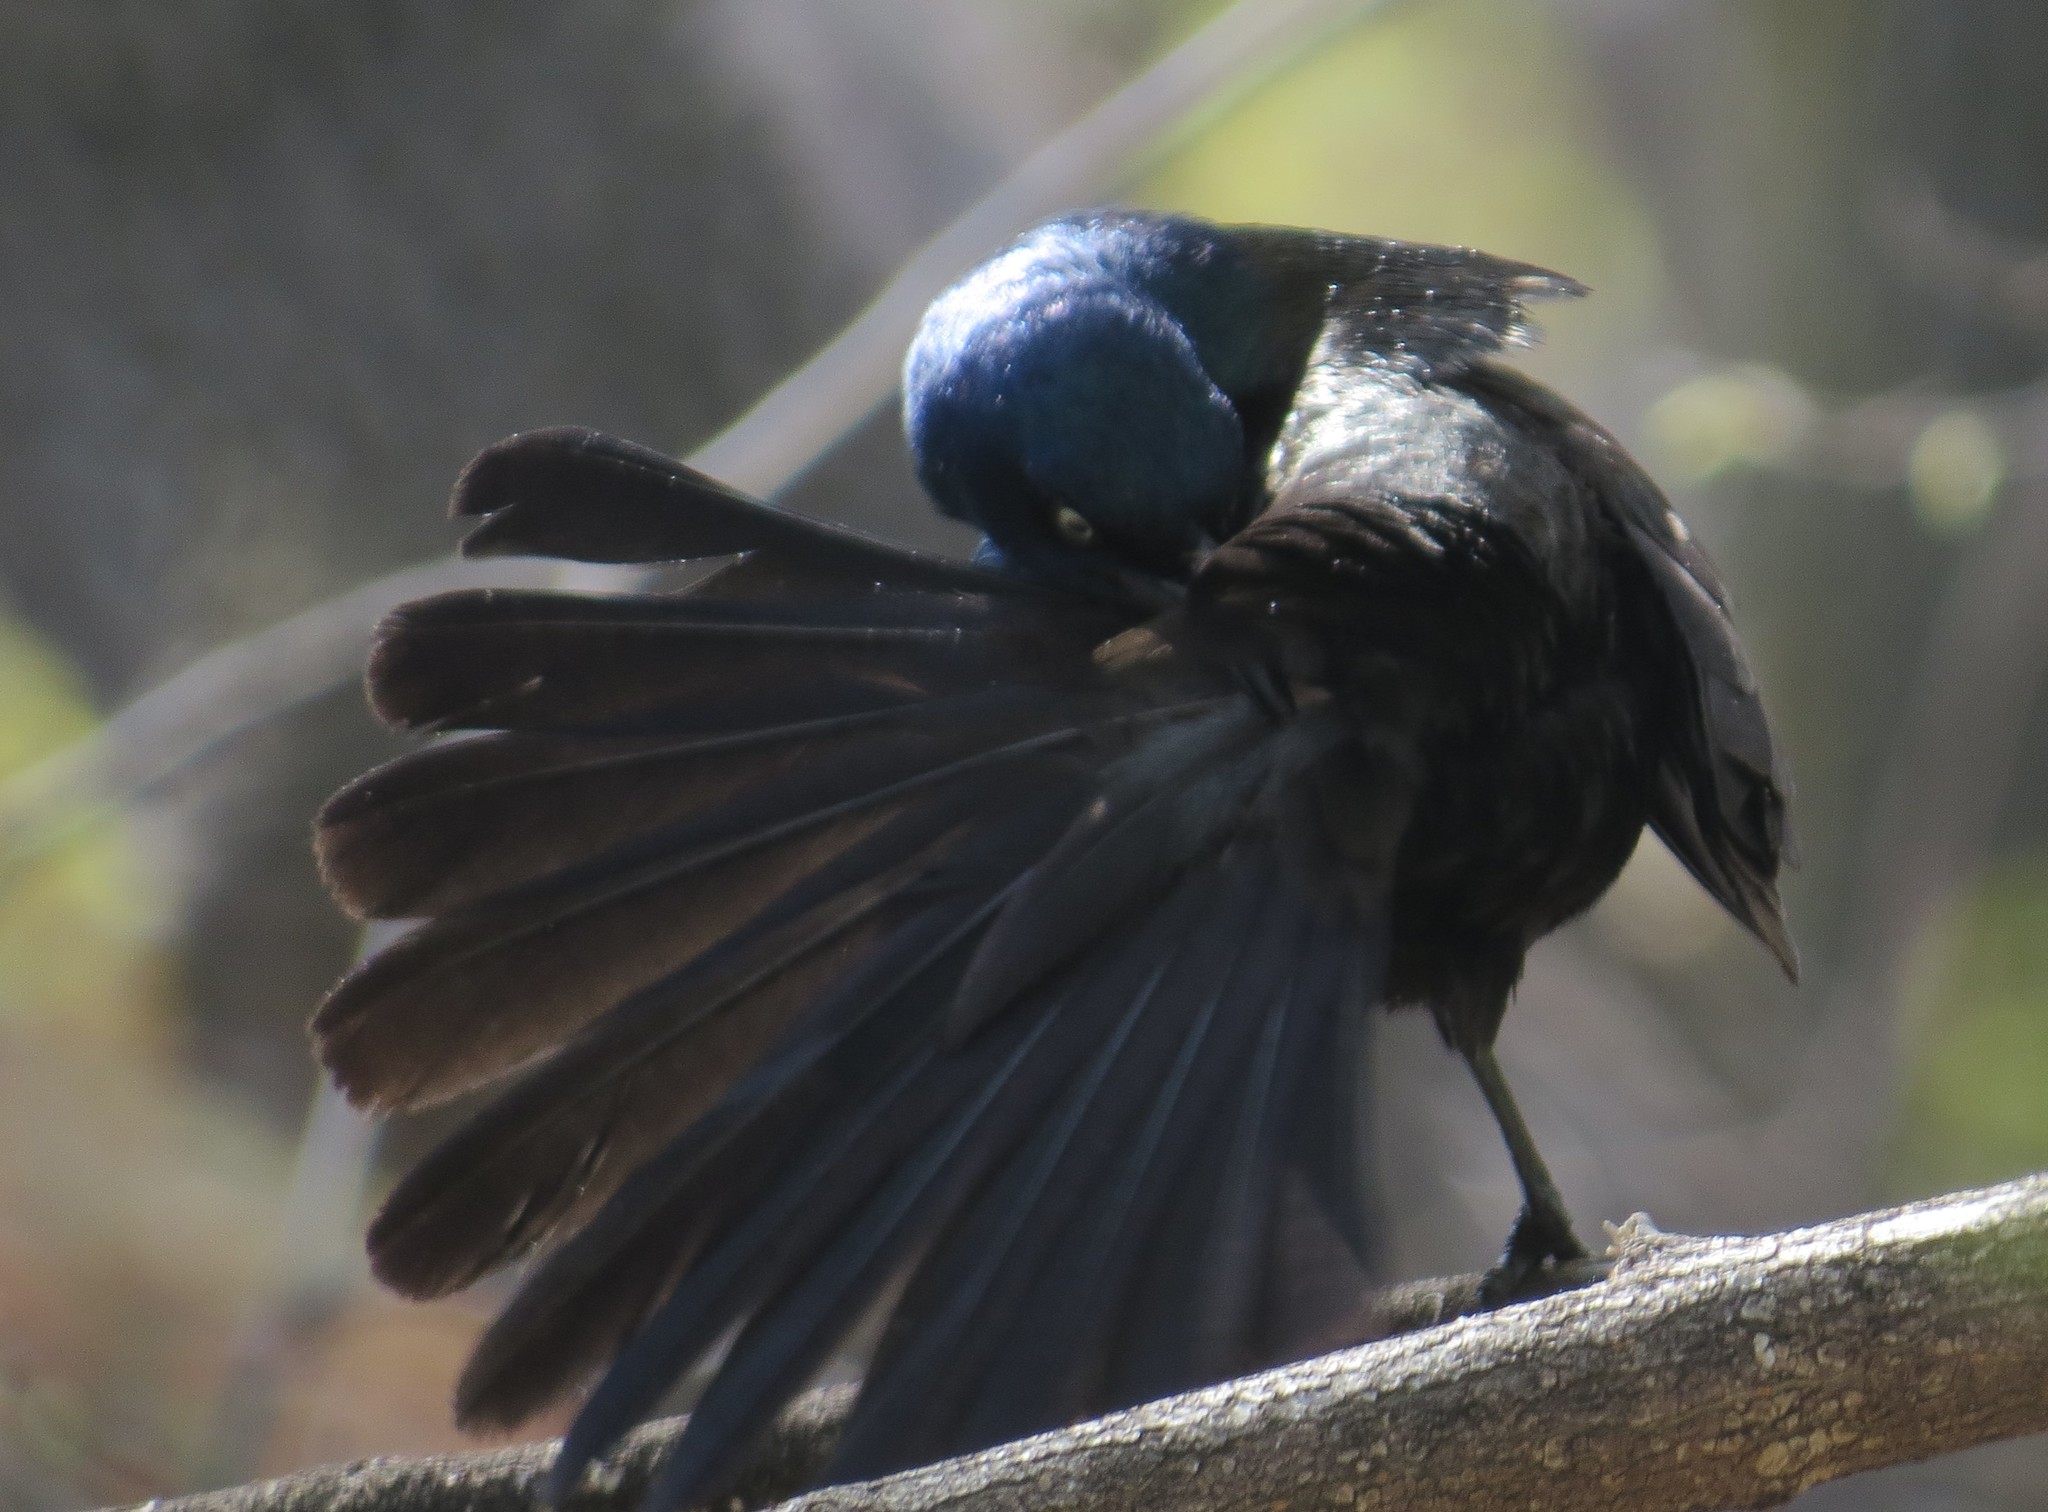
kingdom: Animalia
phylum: Chordata
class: Aves
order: Passeriformes
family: Icteridae
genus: Quiscalus
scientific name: Quiscalus quiscula
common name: Common grackle
